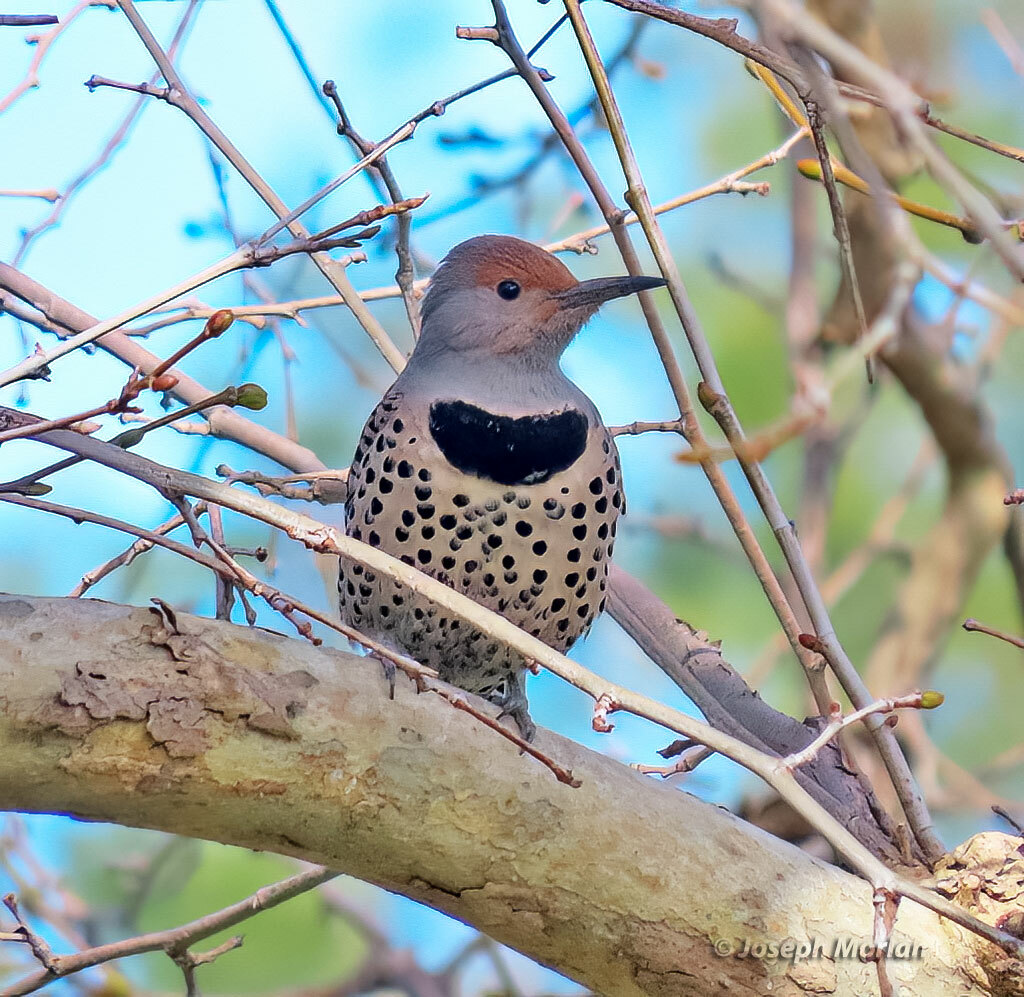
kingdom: Animalia
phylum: Chordata
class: Aves
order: Piciformes
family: Picidae
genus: Colaptes
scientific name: Colaptes auratus
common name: Northern flicker
